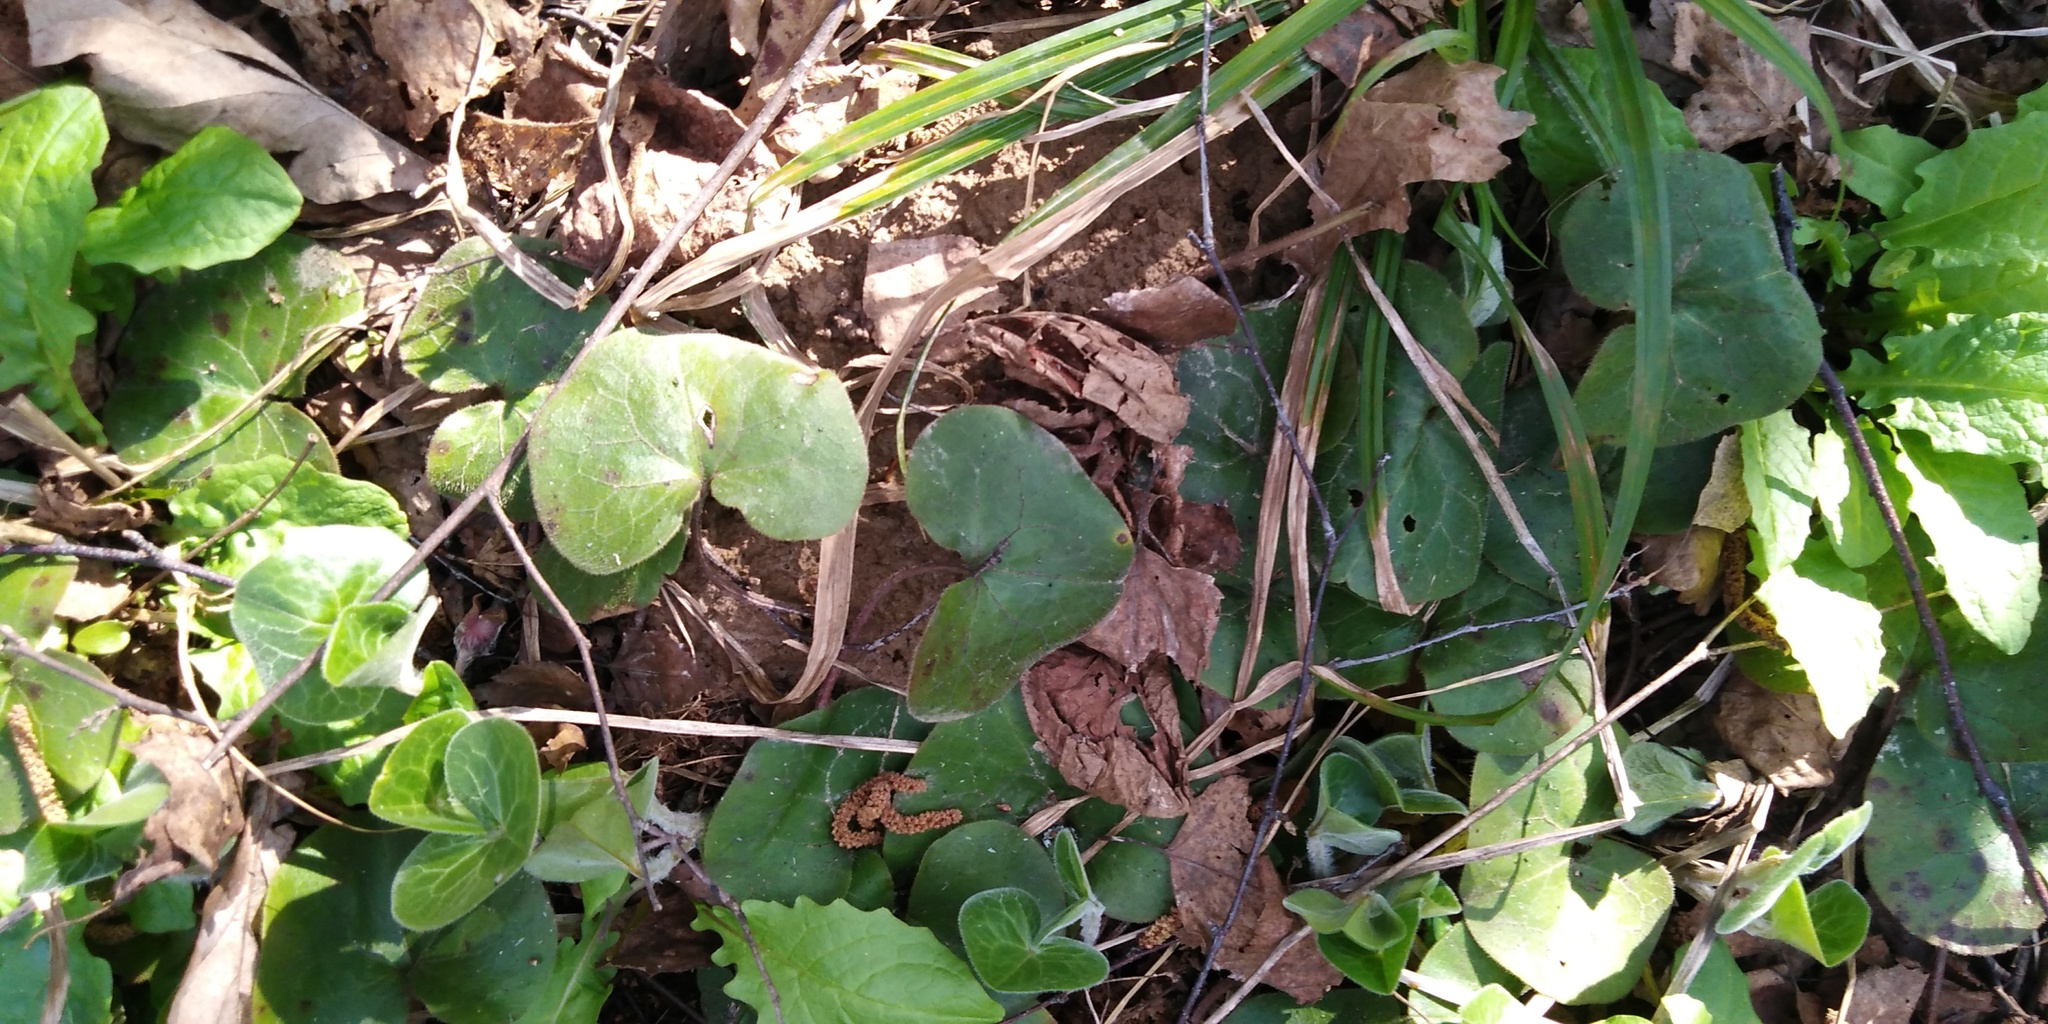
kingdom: Plantae
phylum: Tracheophyta
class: Magnoliopsida
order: Piperales
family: Aristolochiaceae
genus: Asarum
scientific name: Asarum europaeum
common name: Asarabacca
